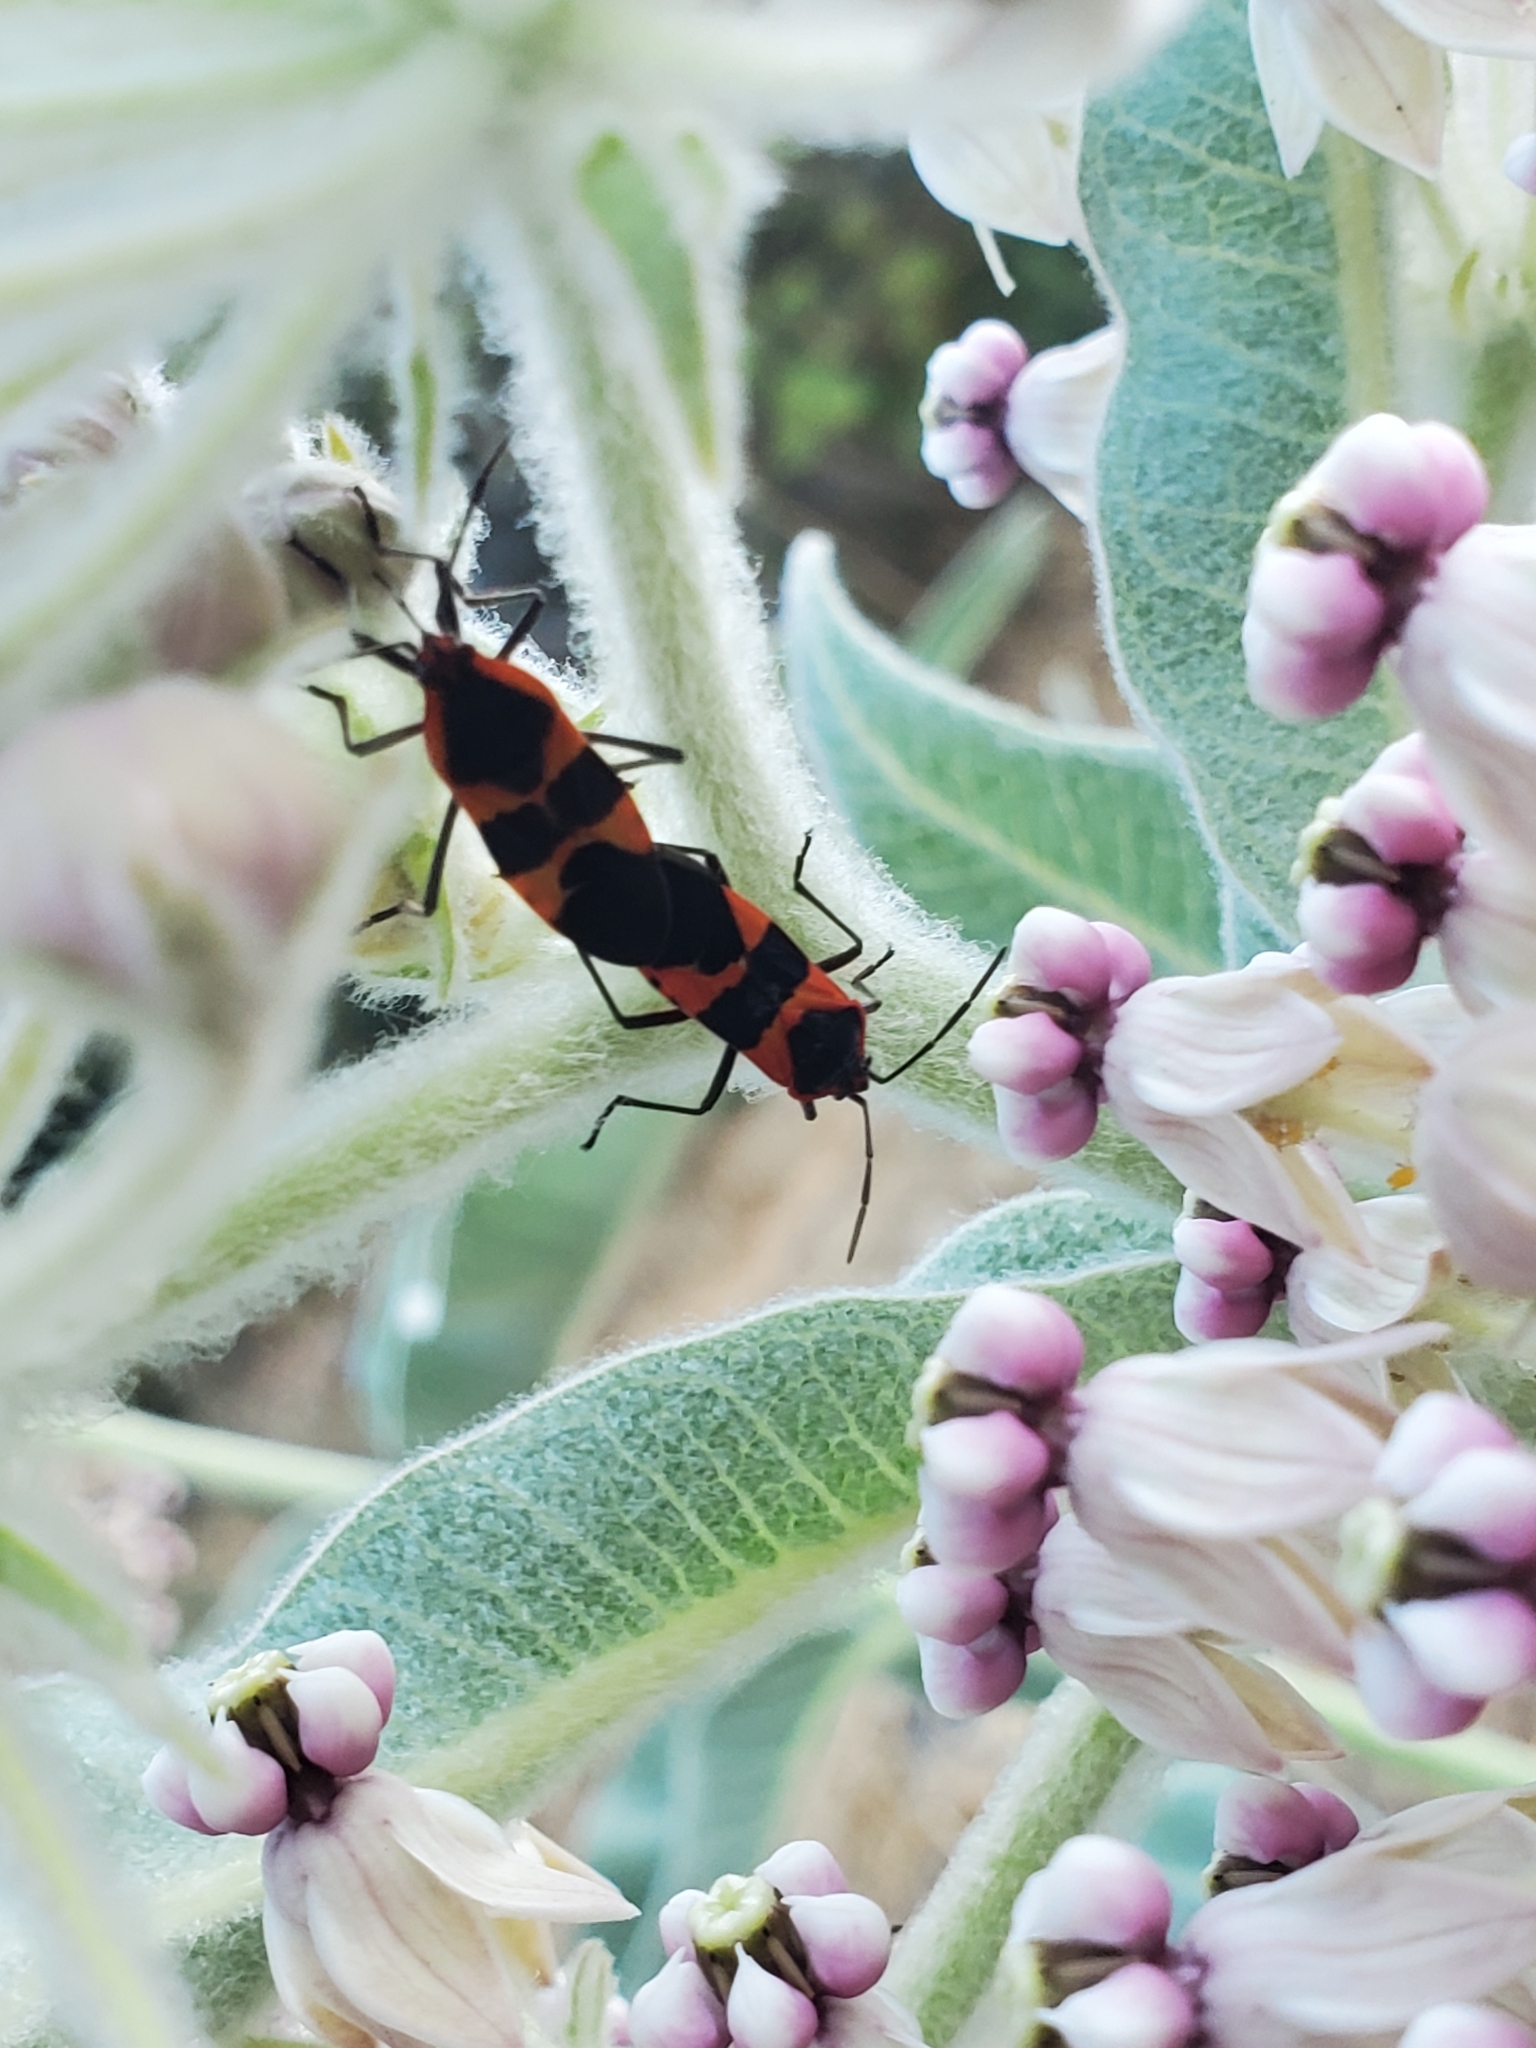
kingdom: Animalia
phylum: Arthropoda
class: Insecta
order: Hemiptera
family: Lygaeidae
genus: Oncopeltus
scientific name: Oncopeltus fasciatus
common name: Large milkweed bug
